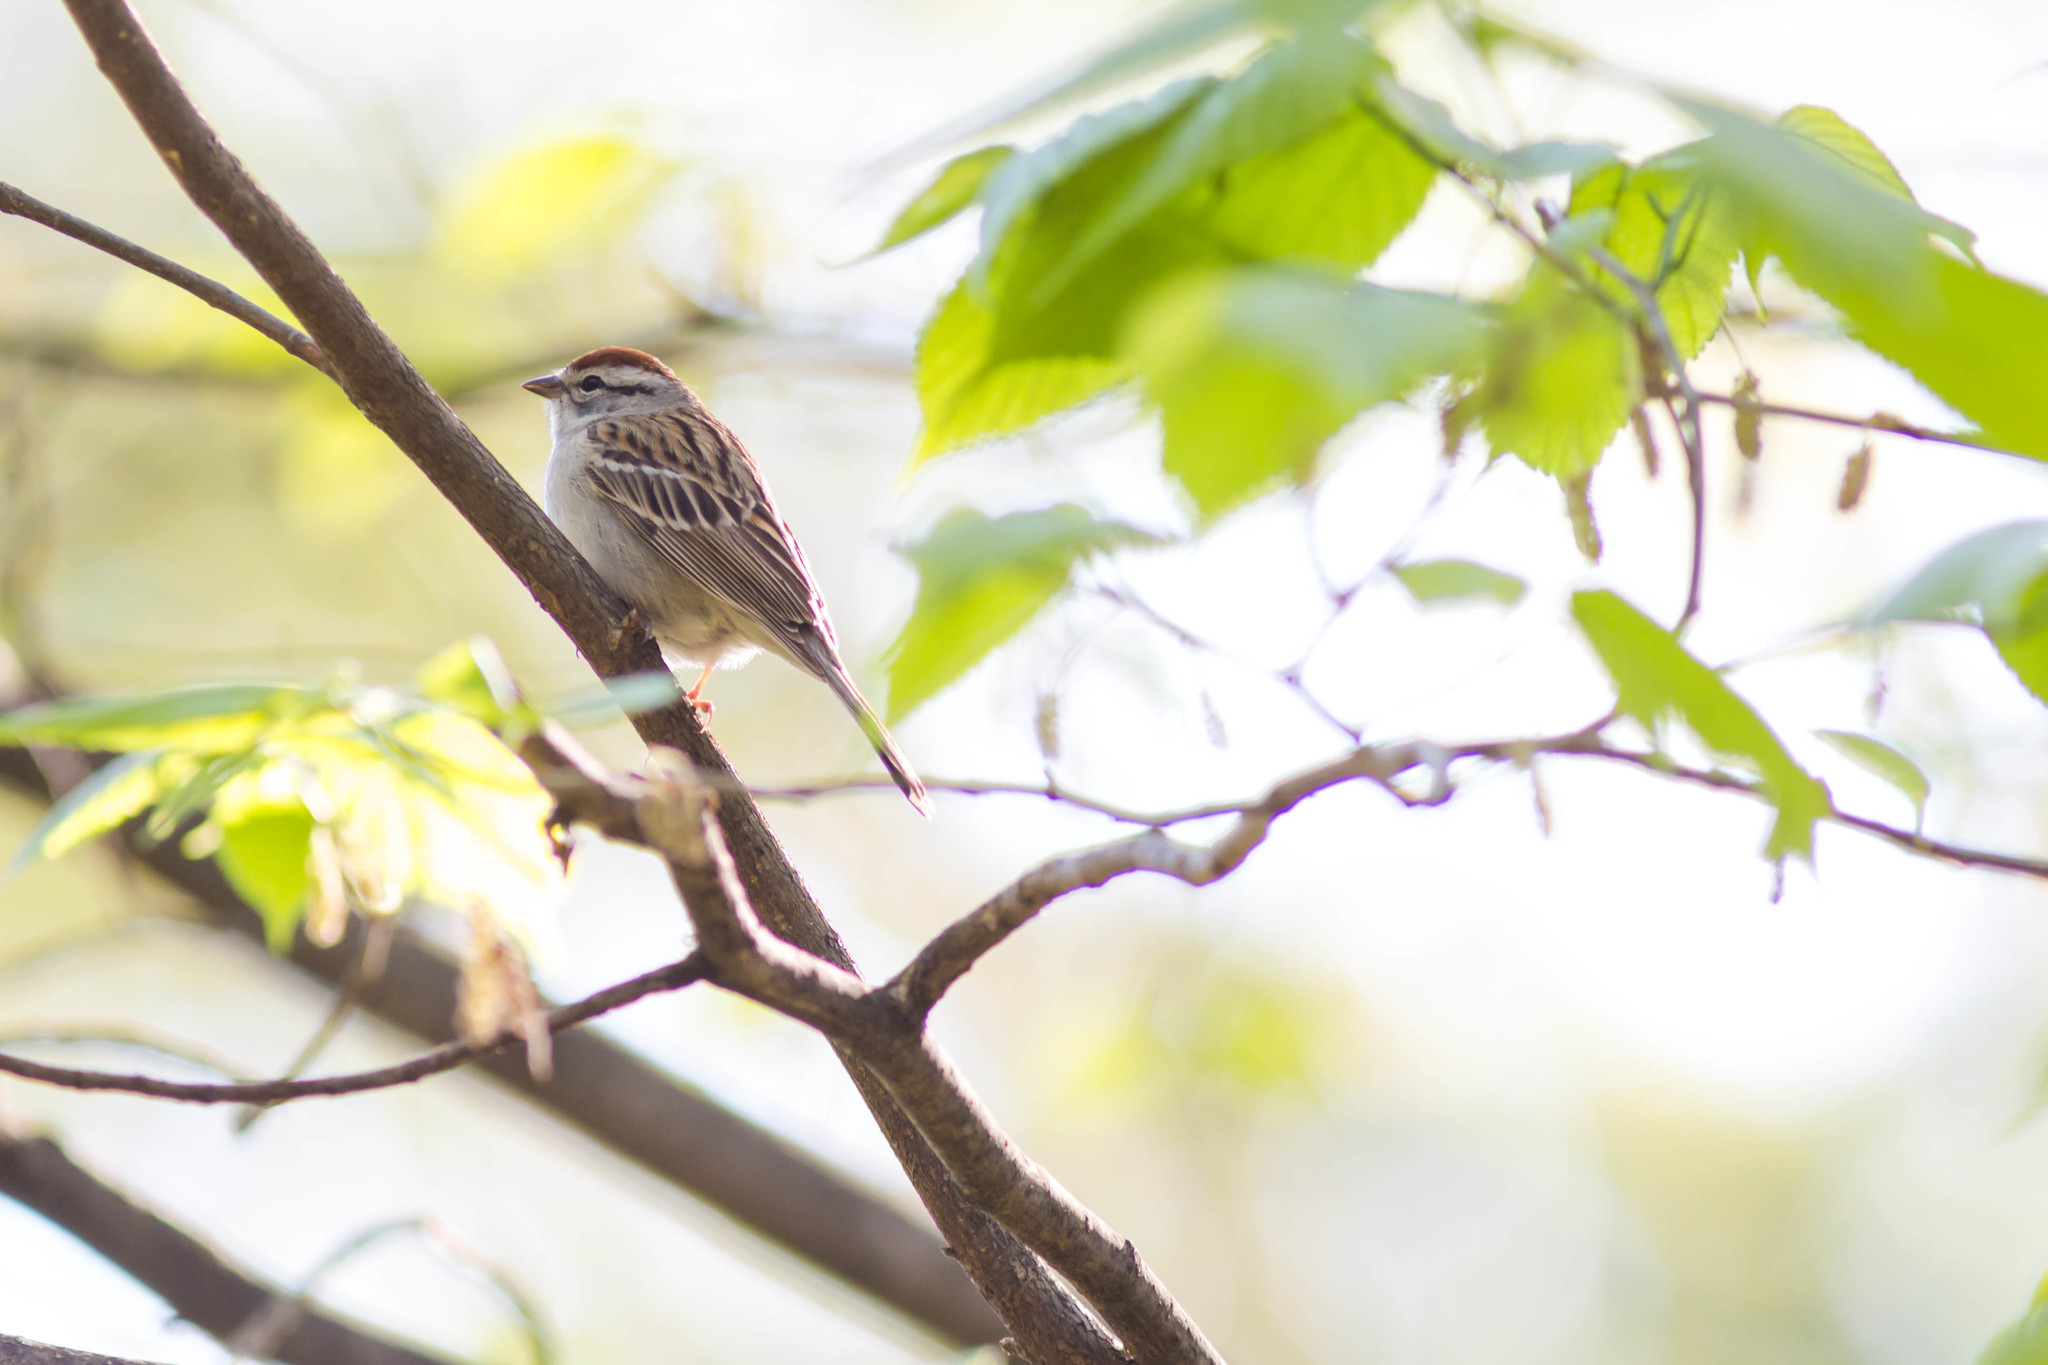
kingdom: Animalia
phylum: Chordata
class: Aves
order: Passeriformes
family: Passerellidae
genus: Spizella
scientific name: Spizella passerina
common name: Chipping sparrow
